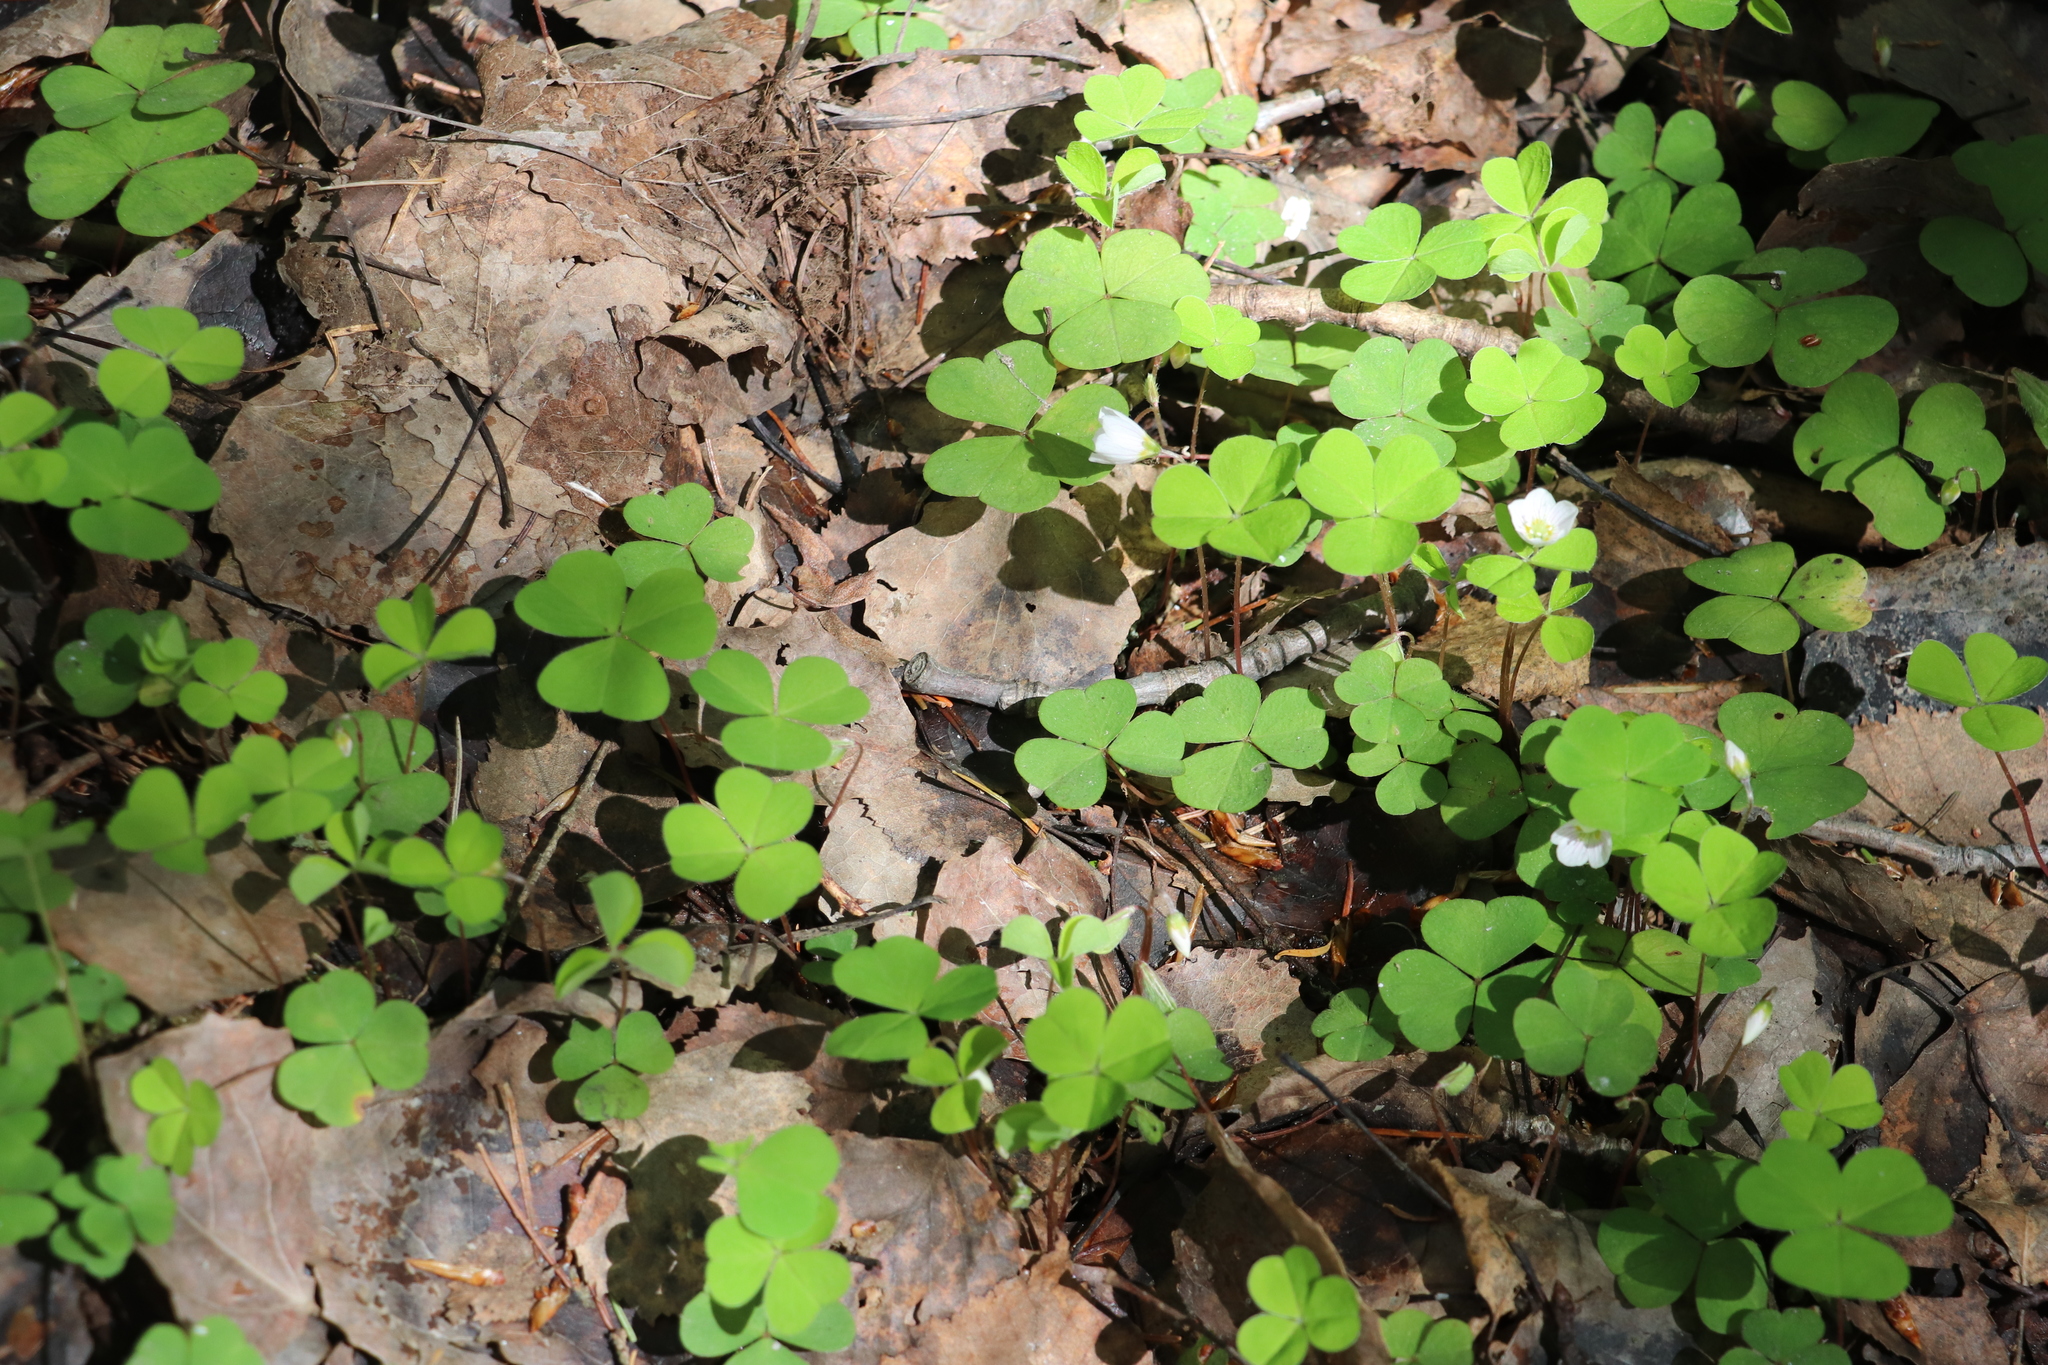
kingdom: Plantae
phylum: Tracheophyta
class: Magnoliopsida
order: Oxalidales
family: Oxalidaceae
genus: Oxalis
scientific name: Oxalis acetosella
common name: Wood-sorrel
